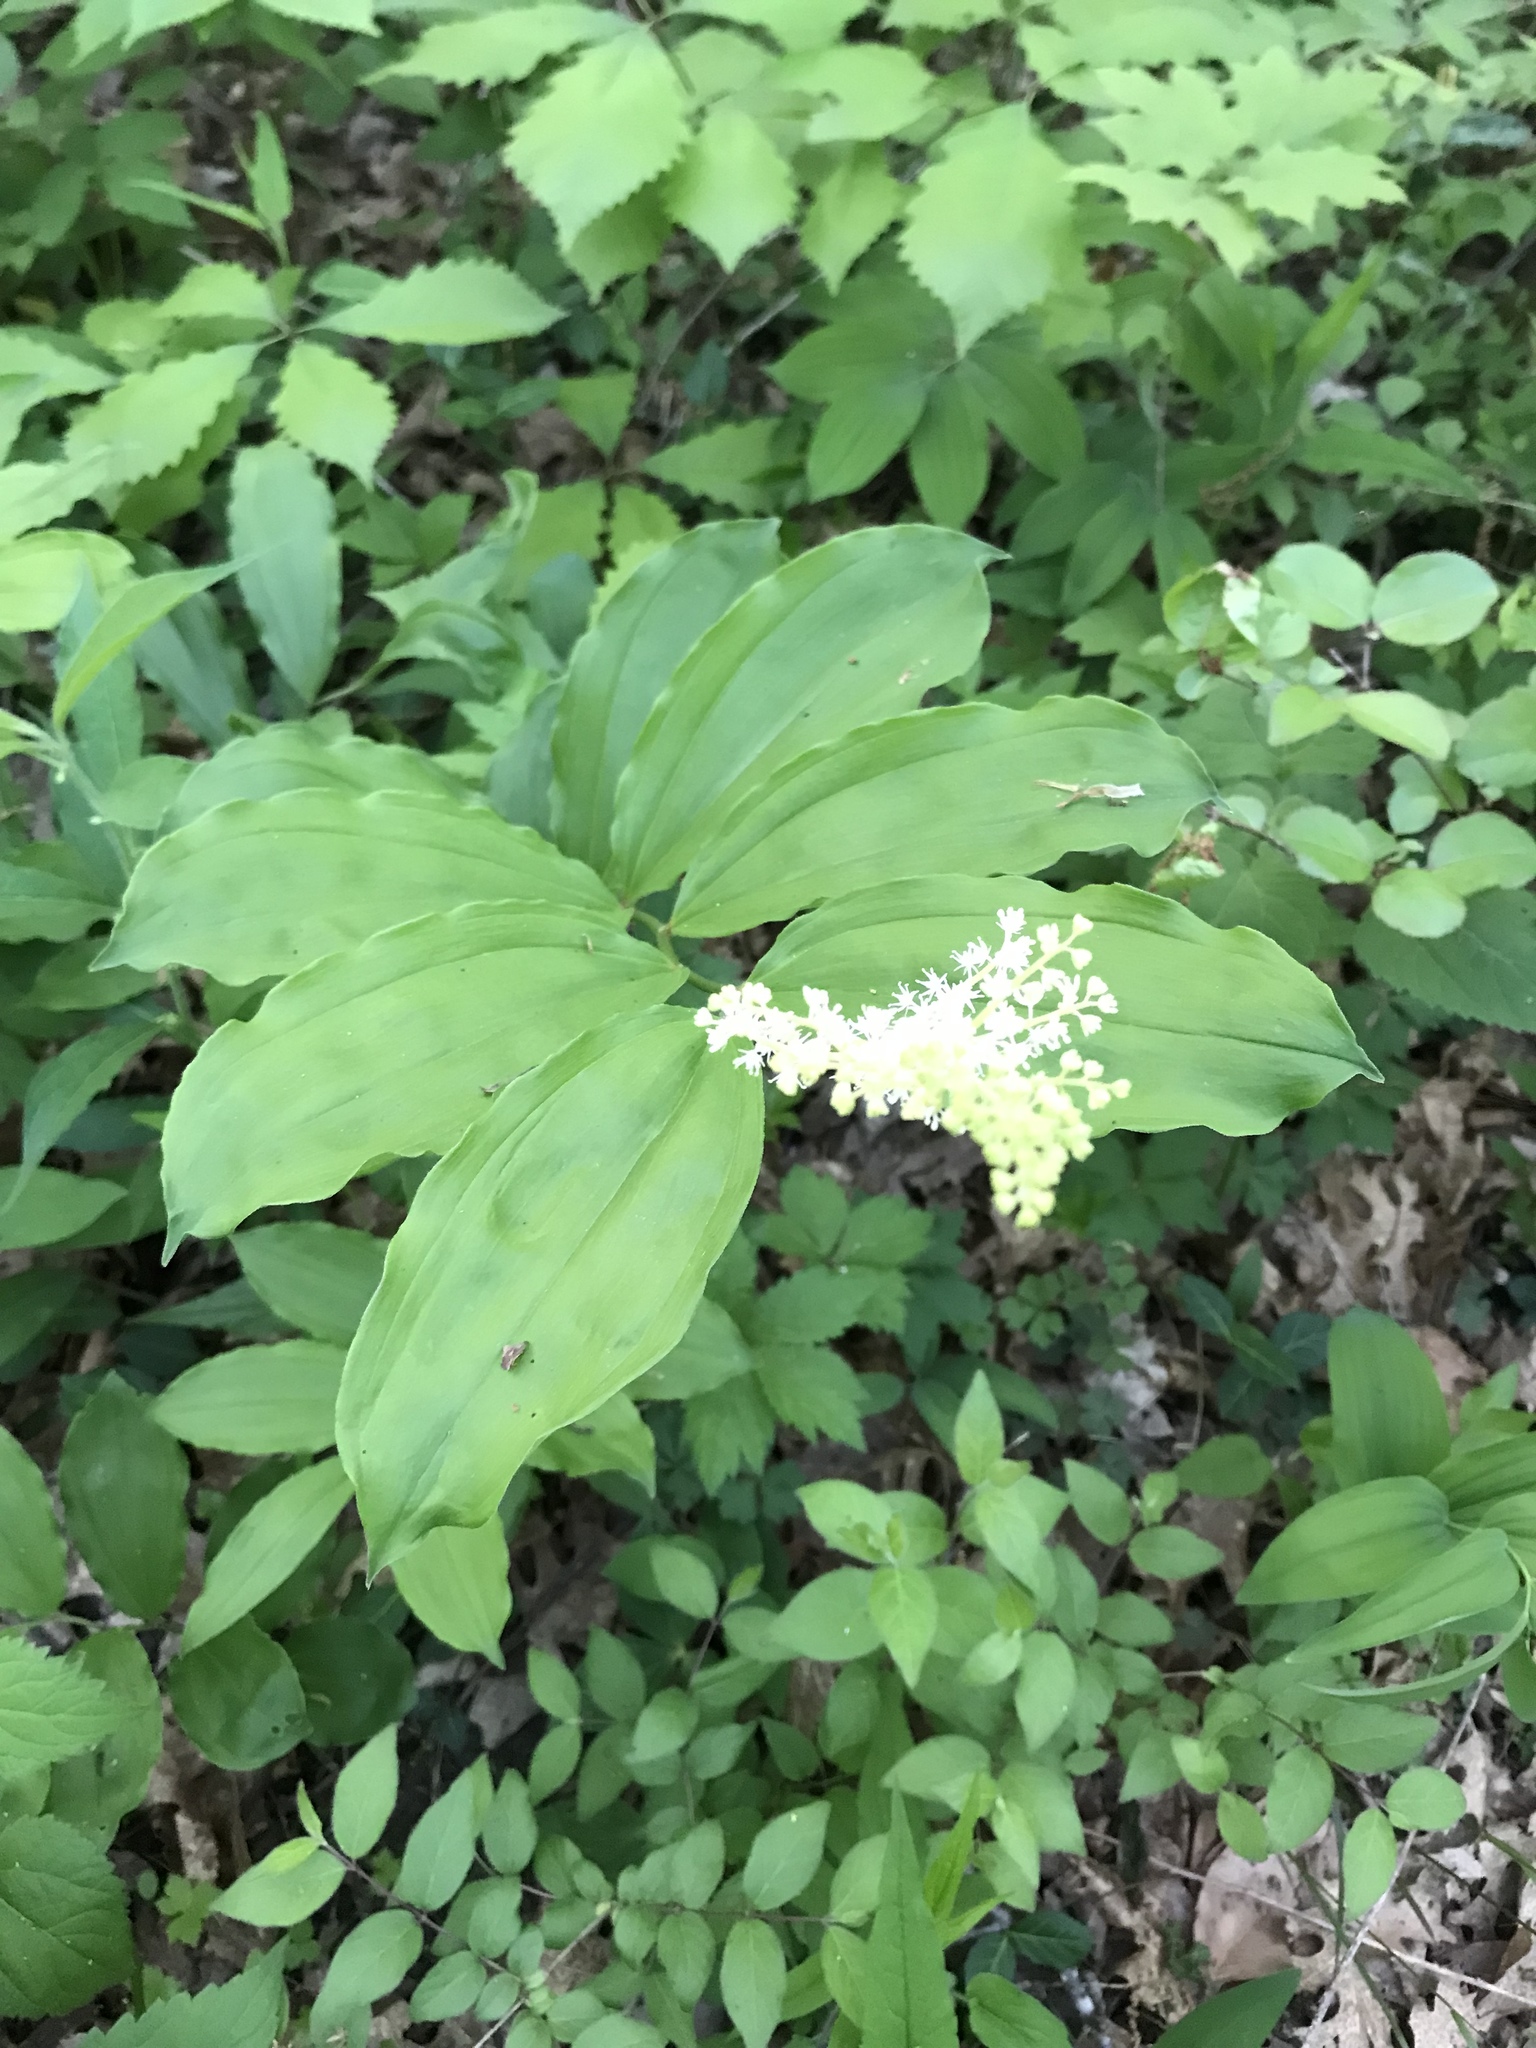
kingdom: Plantae
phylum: Tracheophyta
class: Liliopsida
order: Asparagales
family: Asparagaceae
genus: Maianthemum
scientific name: Maianthemum racemosum
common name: False spikenard
